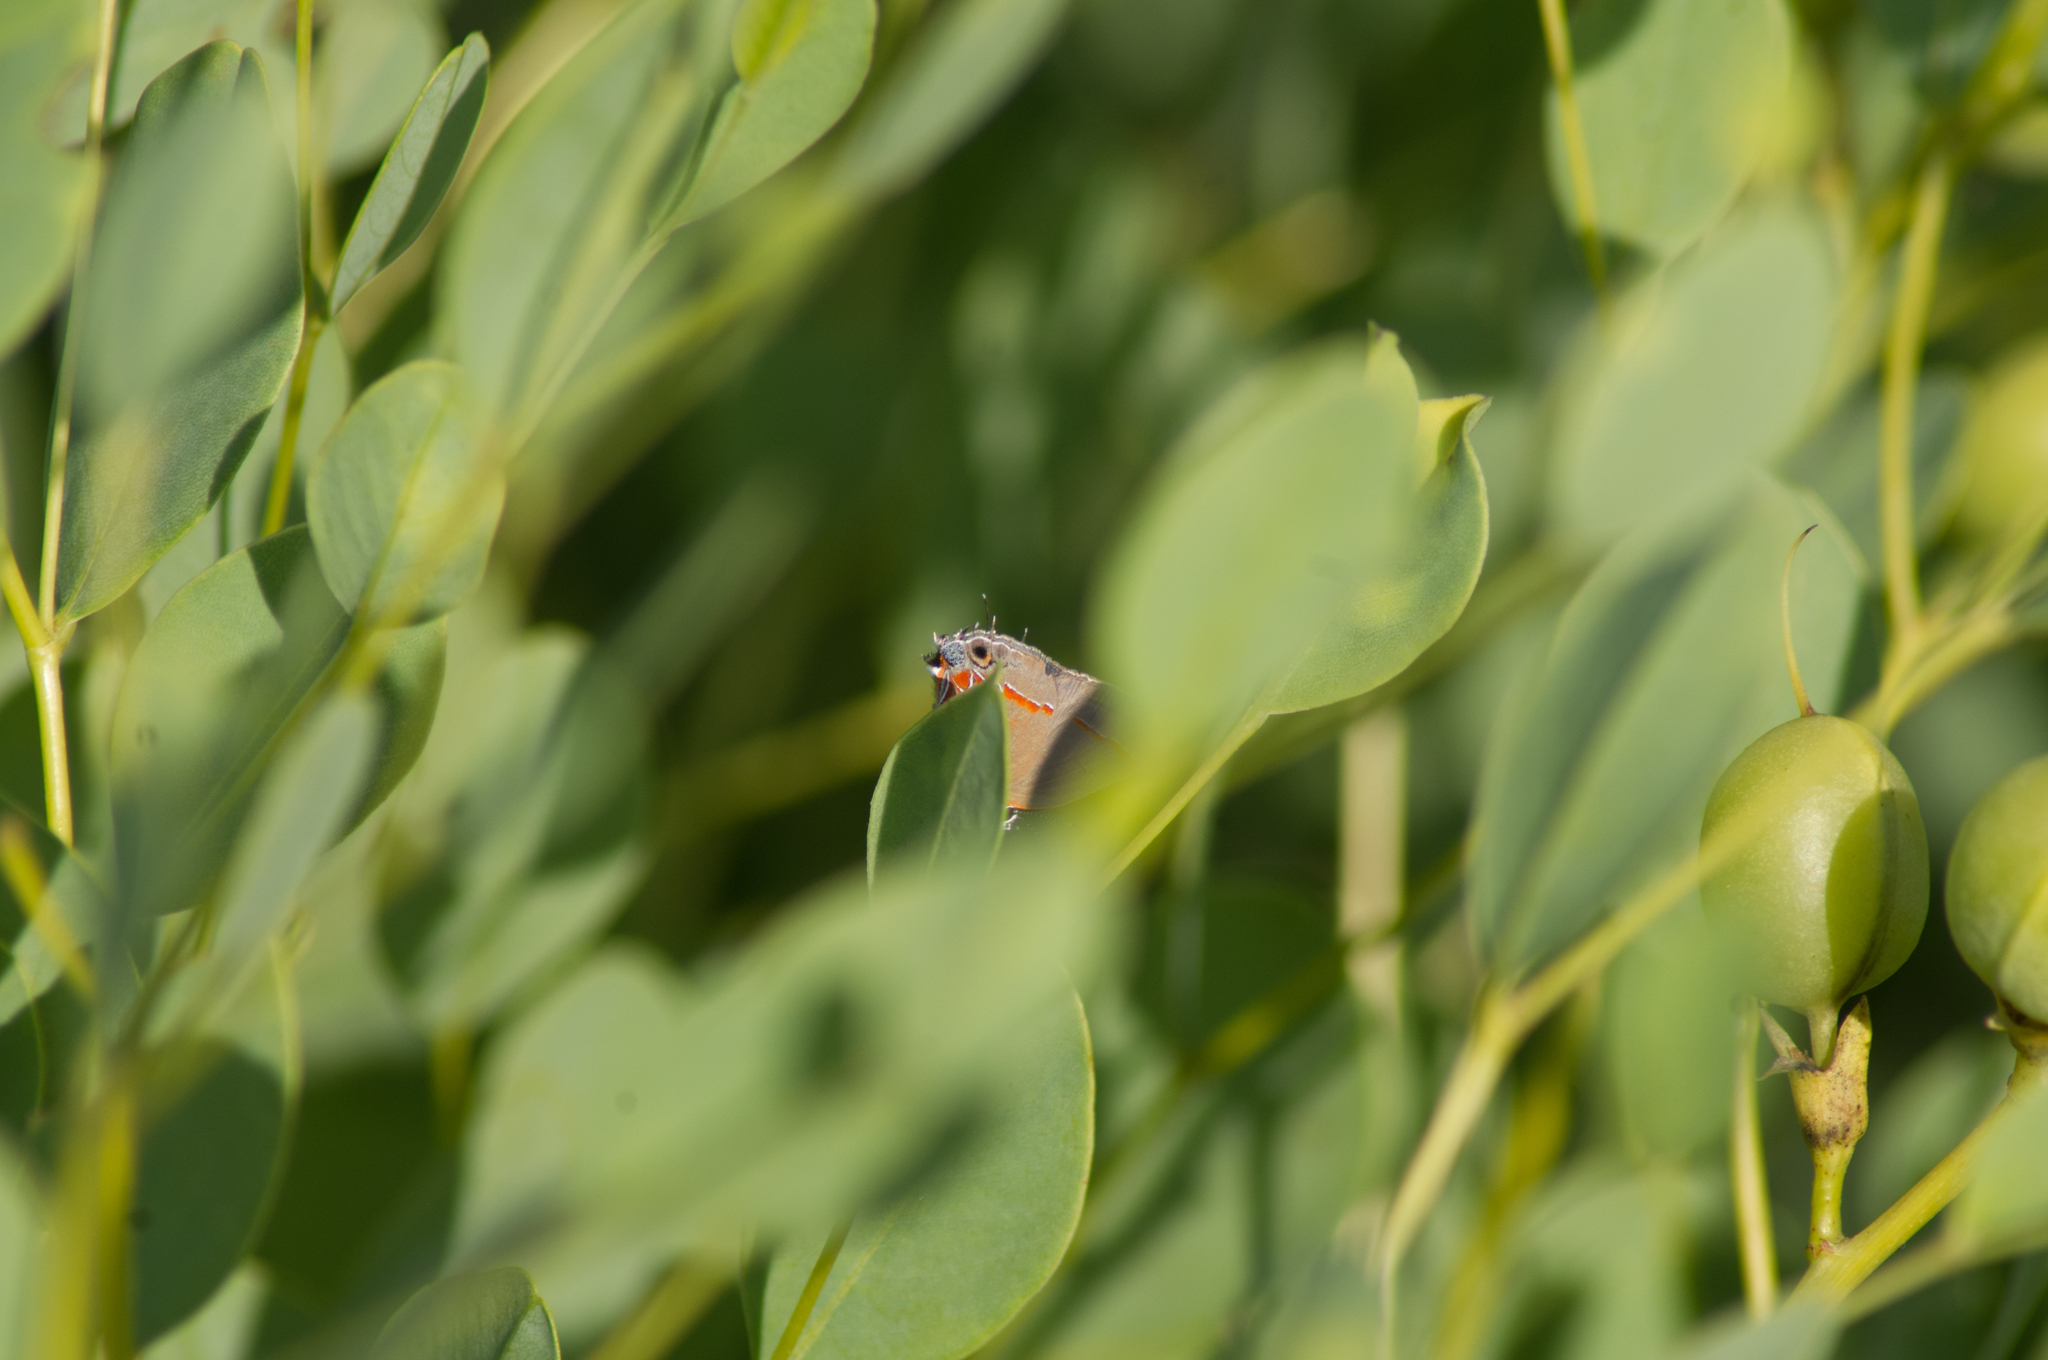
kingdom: Animalia
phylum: Arthropoda
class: Insecta
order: Lepidoptera
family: Lycaenidae
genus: Calycopis
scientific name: Calycopis cecrops
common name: Red-banded hairstreak
